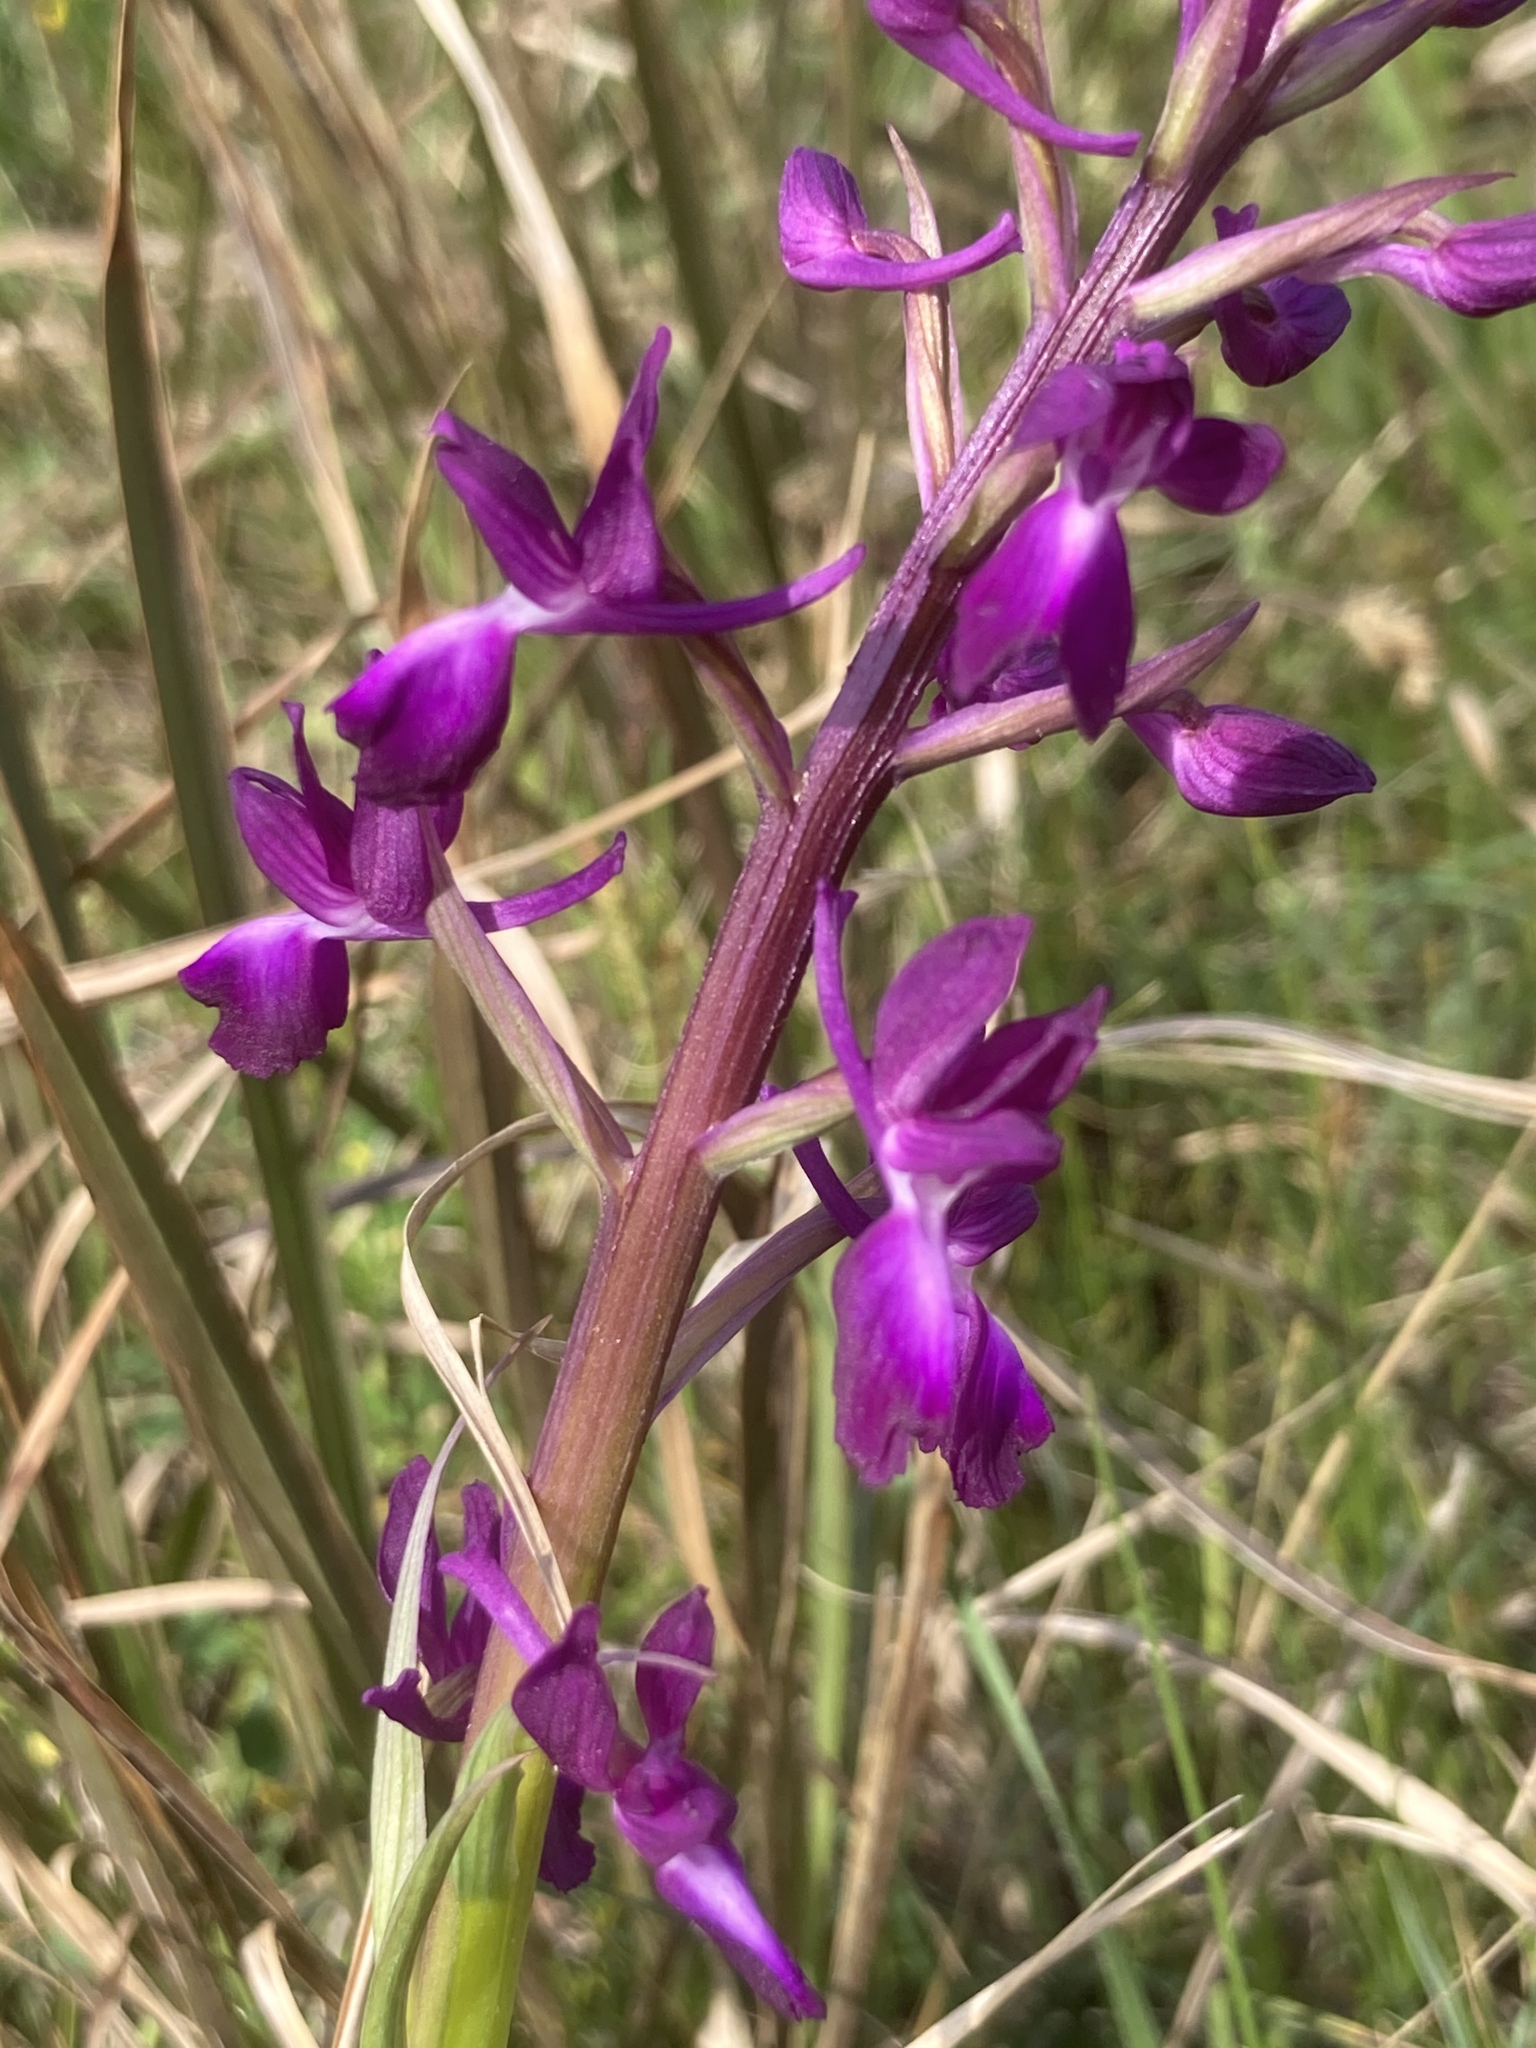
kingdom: Plantae
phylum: Tracheophyta
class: Liliopsida
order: Asparagales
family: Orchidaceae
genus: Anacamptis
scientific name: Anacamptis laxiflora
